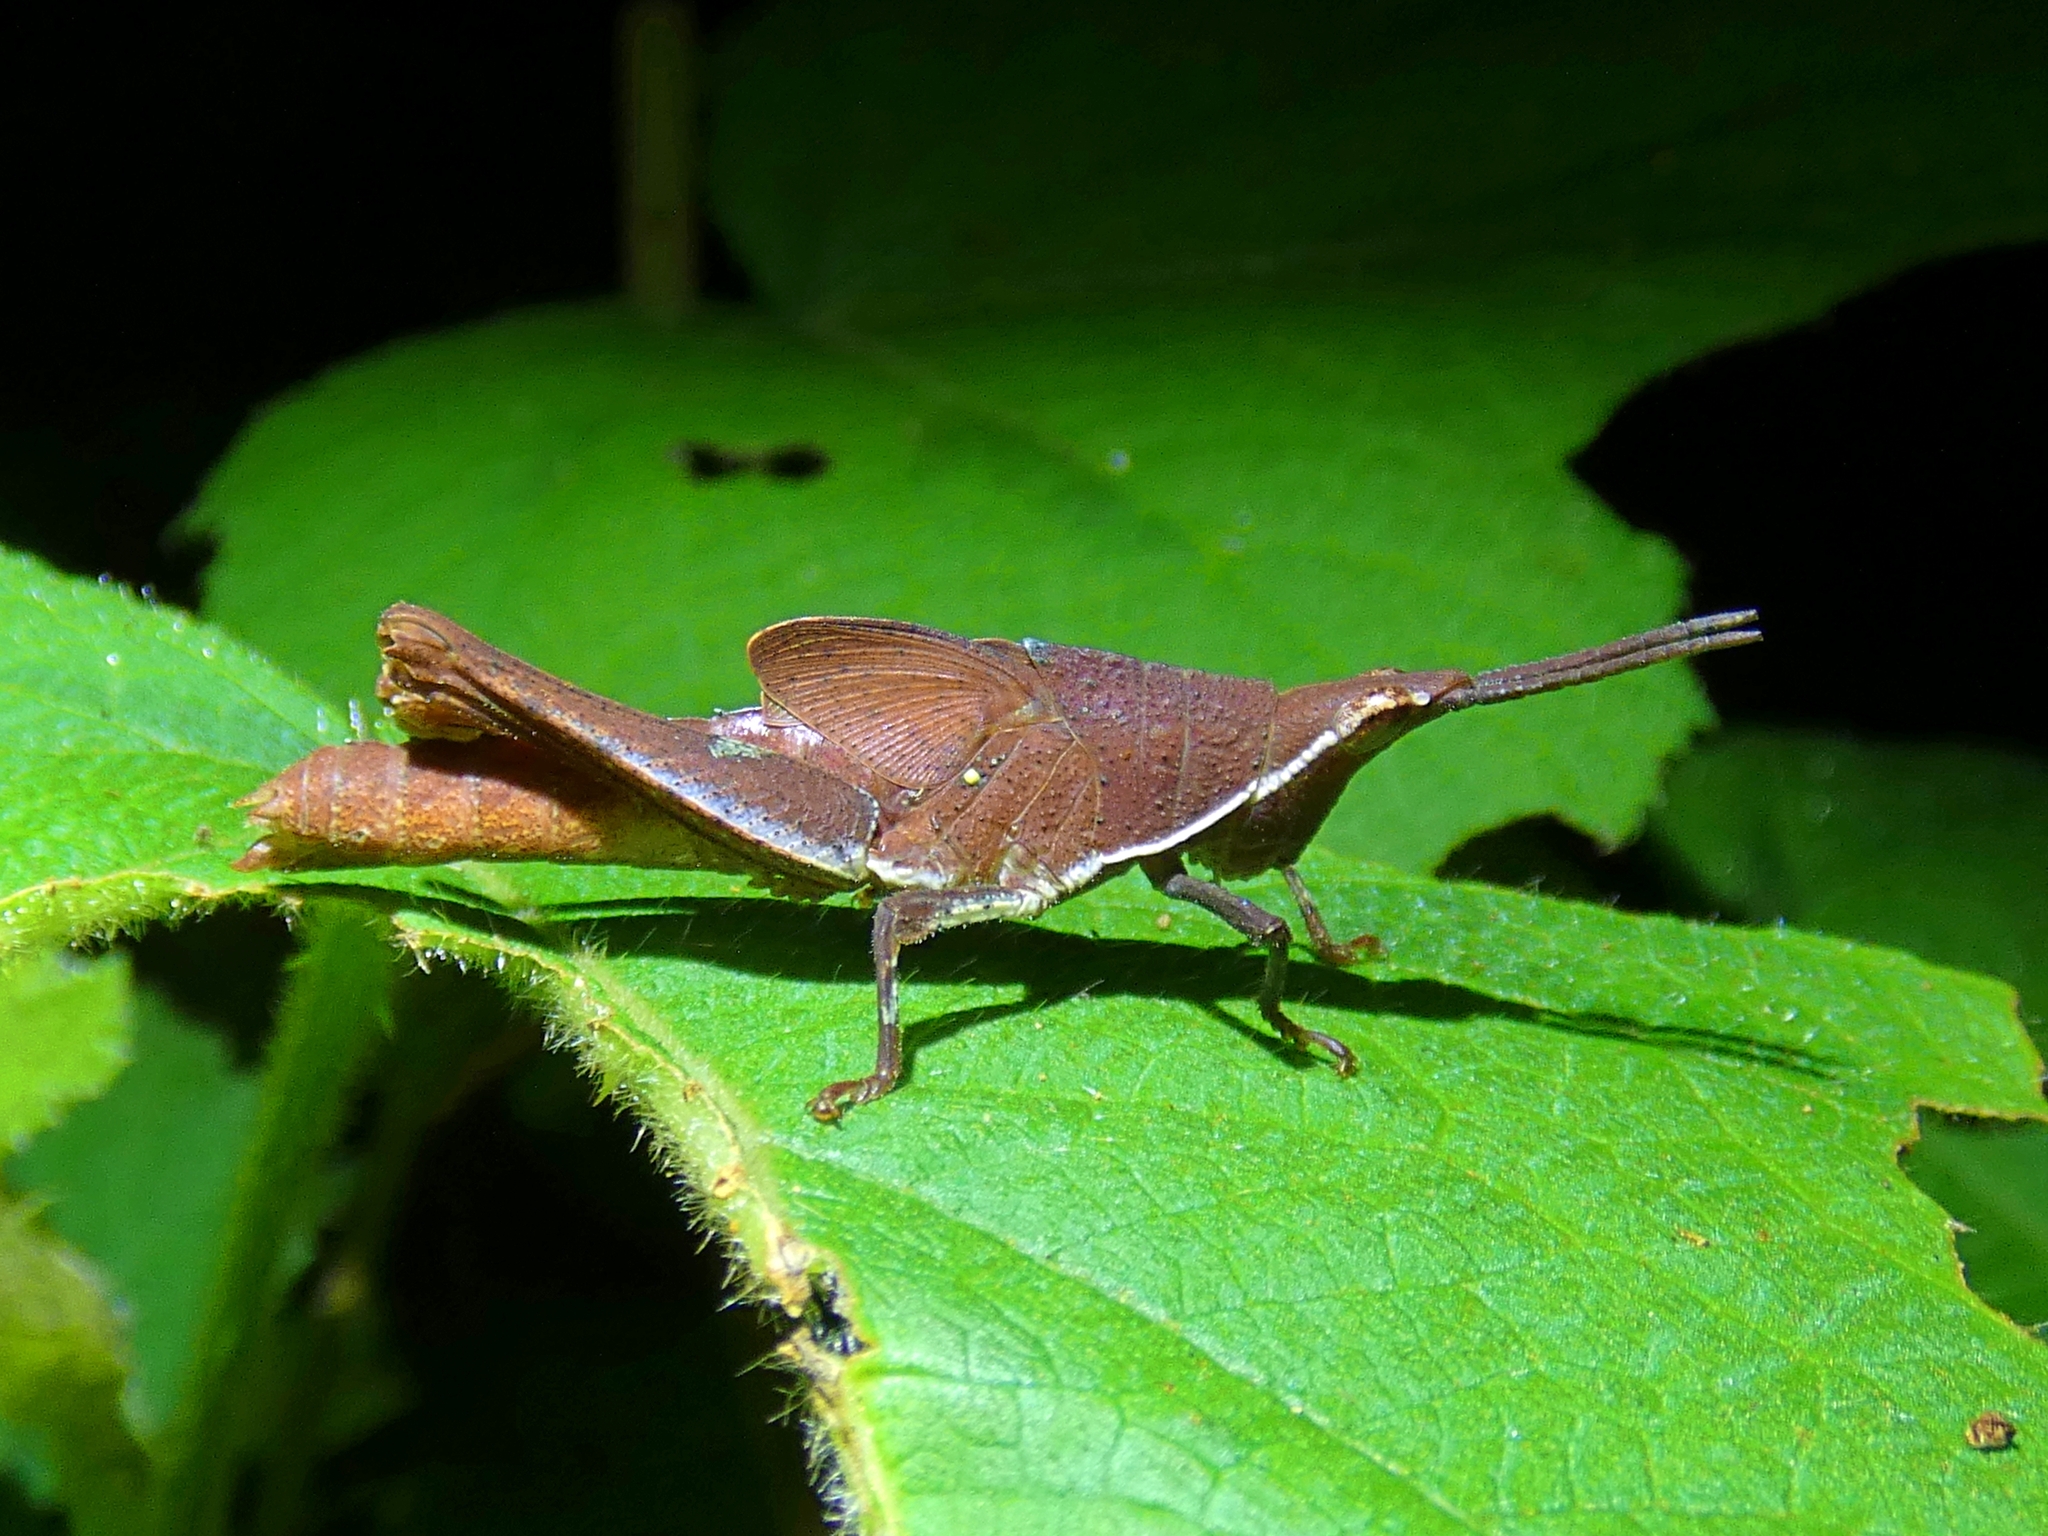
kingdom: Animalia
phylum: Arthropoda
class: Insecta
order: Orthoptera
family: Pyrgomorphidae
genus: Desmoptera
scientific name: Desmoptera truncatipennis
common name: Large forest pyrgomorph
